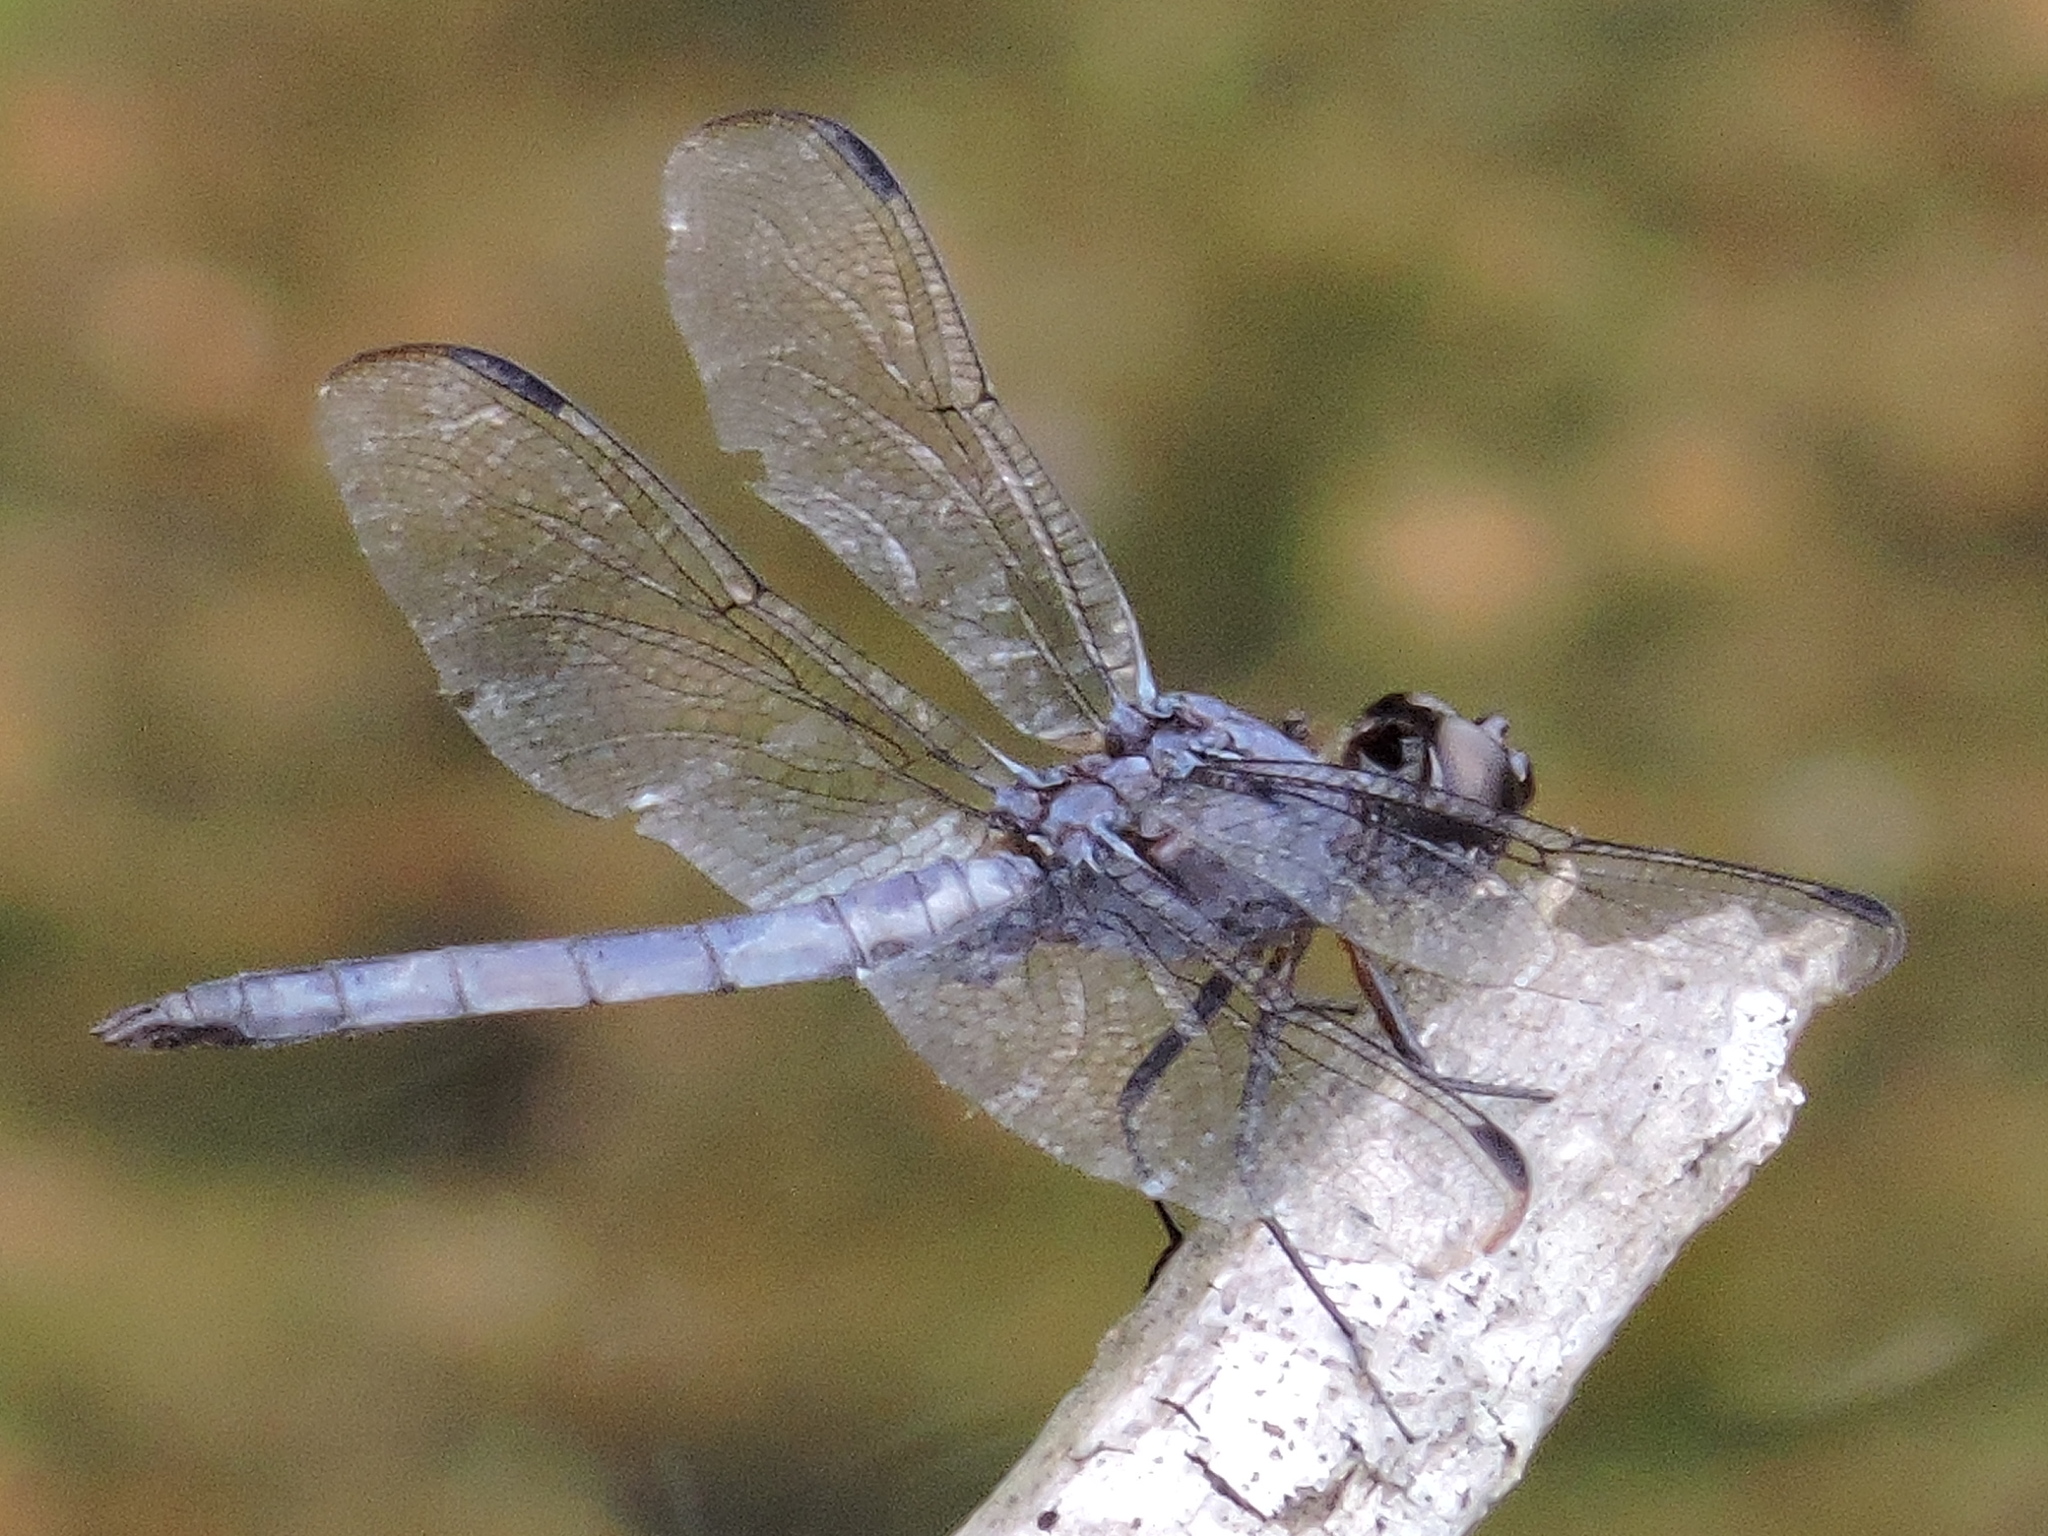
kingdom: Animalia
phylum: Arthropoda
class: Insecta
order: Odonata
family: Libellulidae
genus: Libellula
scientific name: Libellula incesta
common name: Slaty skimmer
